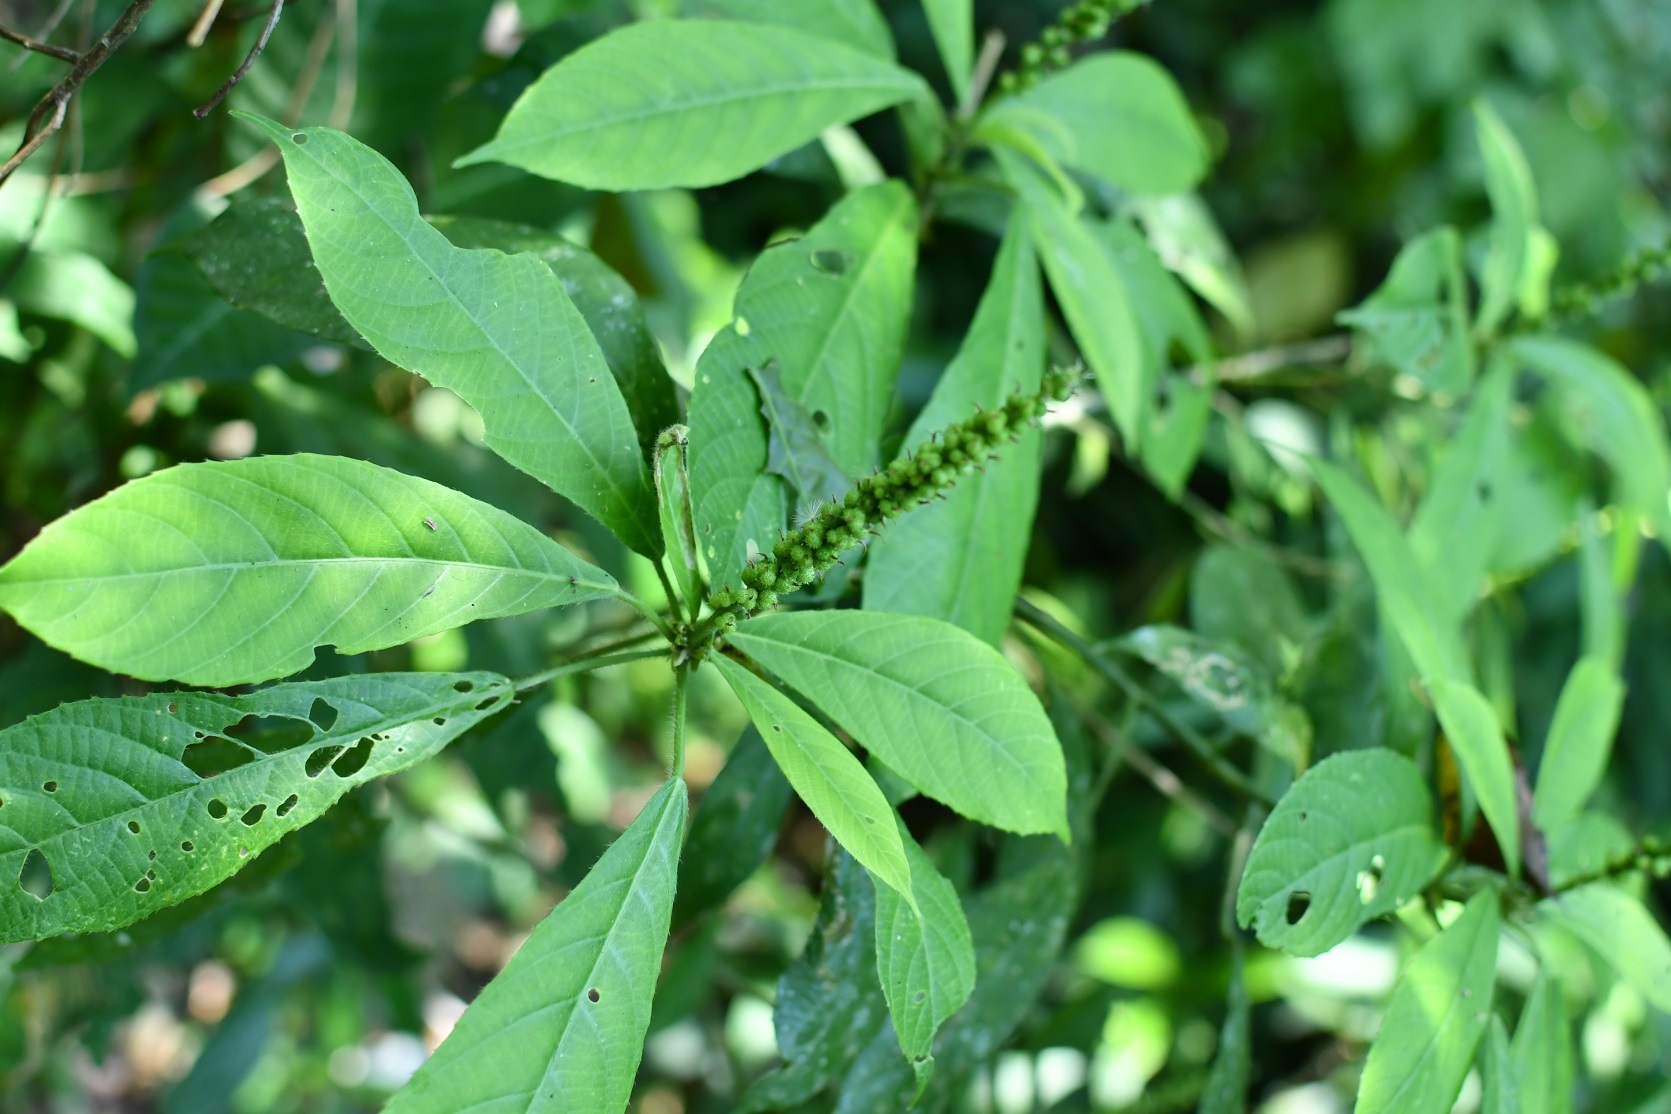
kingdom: Plantae
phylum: Tracheophyta
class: Magnoliopsida
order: Malpighiales
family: Euphorbiaceae
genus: Acalypha
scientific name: Acalypha skutchii
